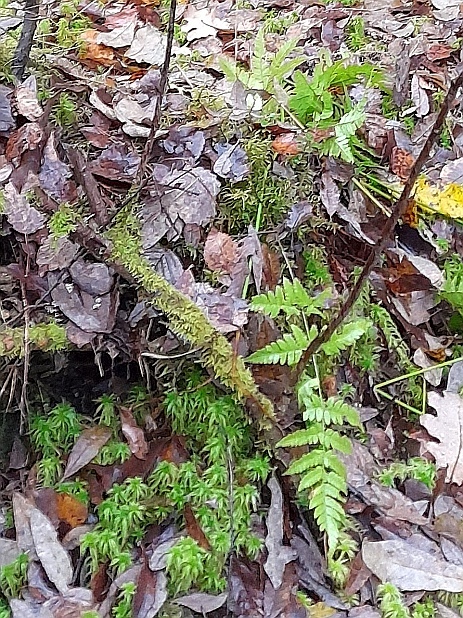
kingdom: Plantae
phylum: Tracheophyta
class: Polypodiopsida
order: Polypodiales
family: Dryopteridaceae
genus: Dryopteris
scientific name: Dryopteris carthusiana
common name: Narrow buckler-fern
